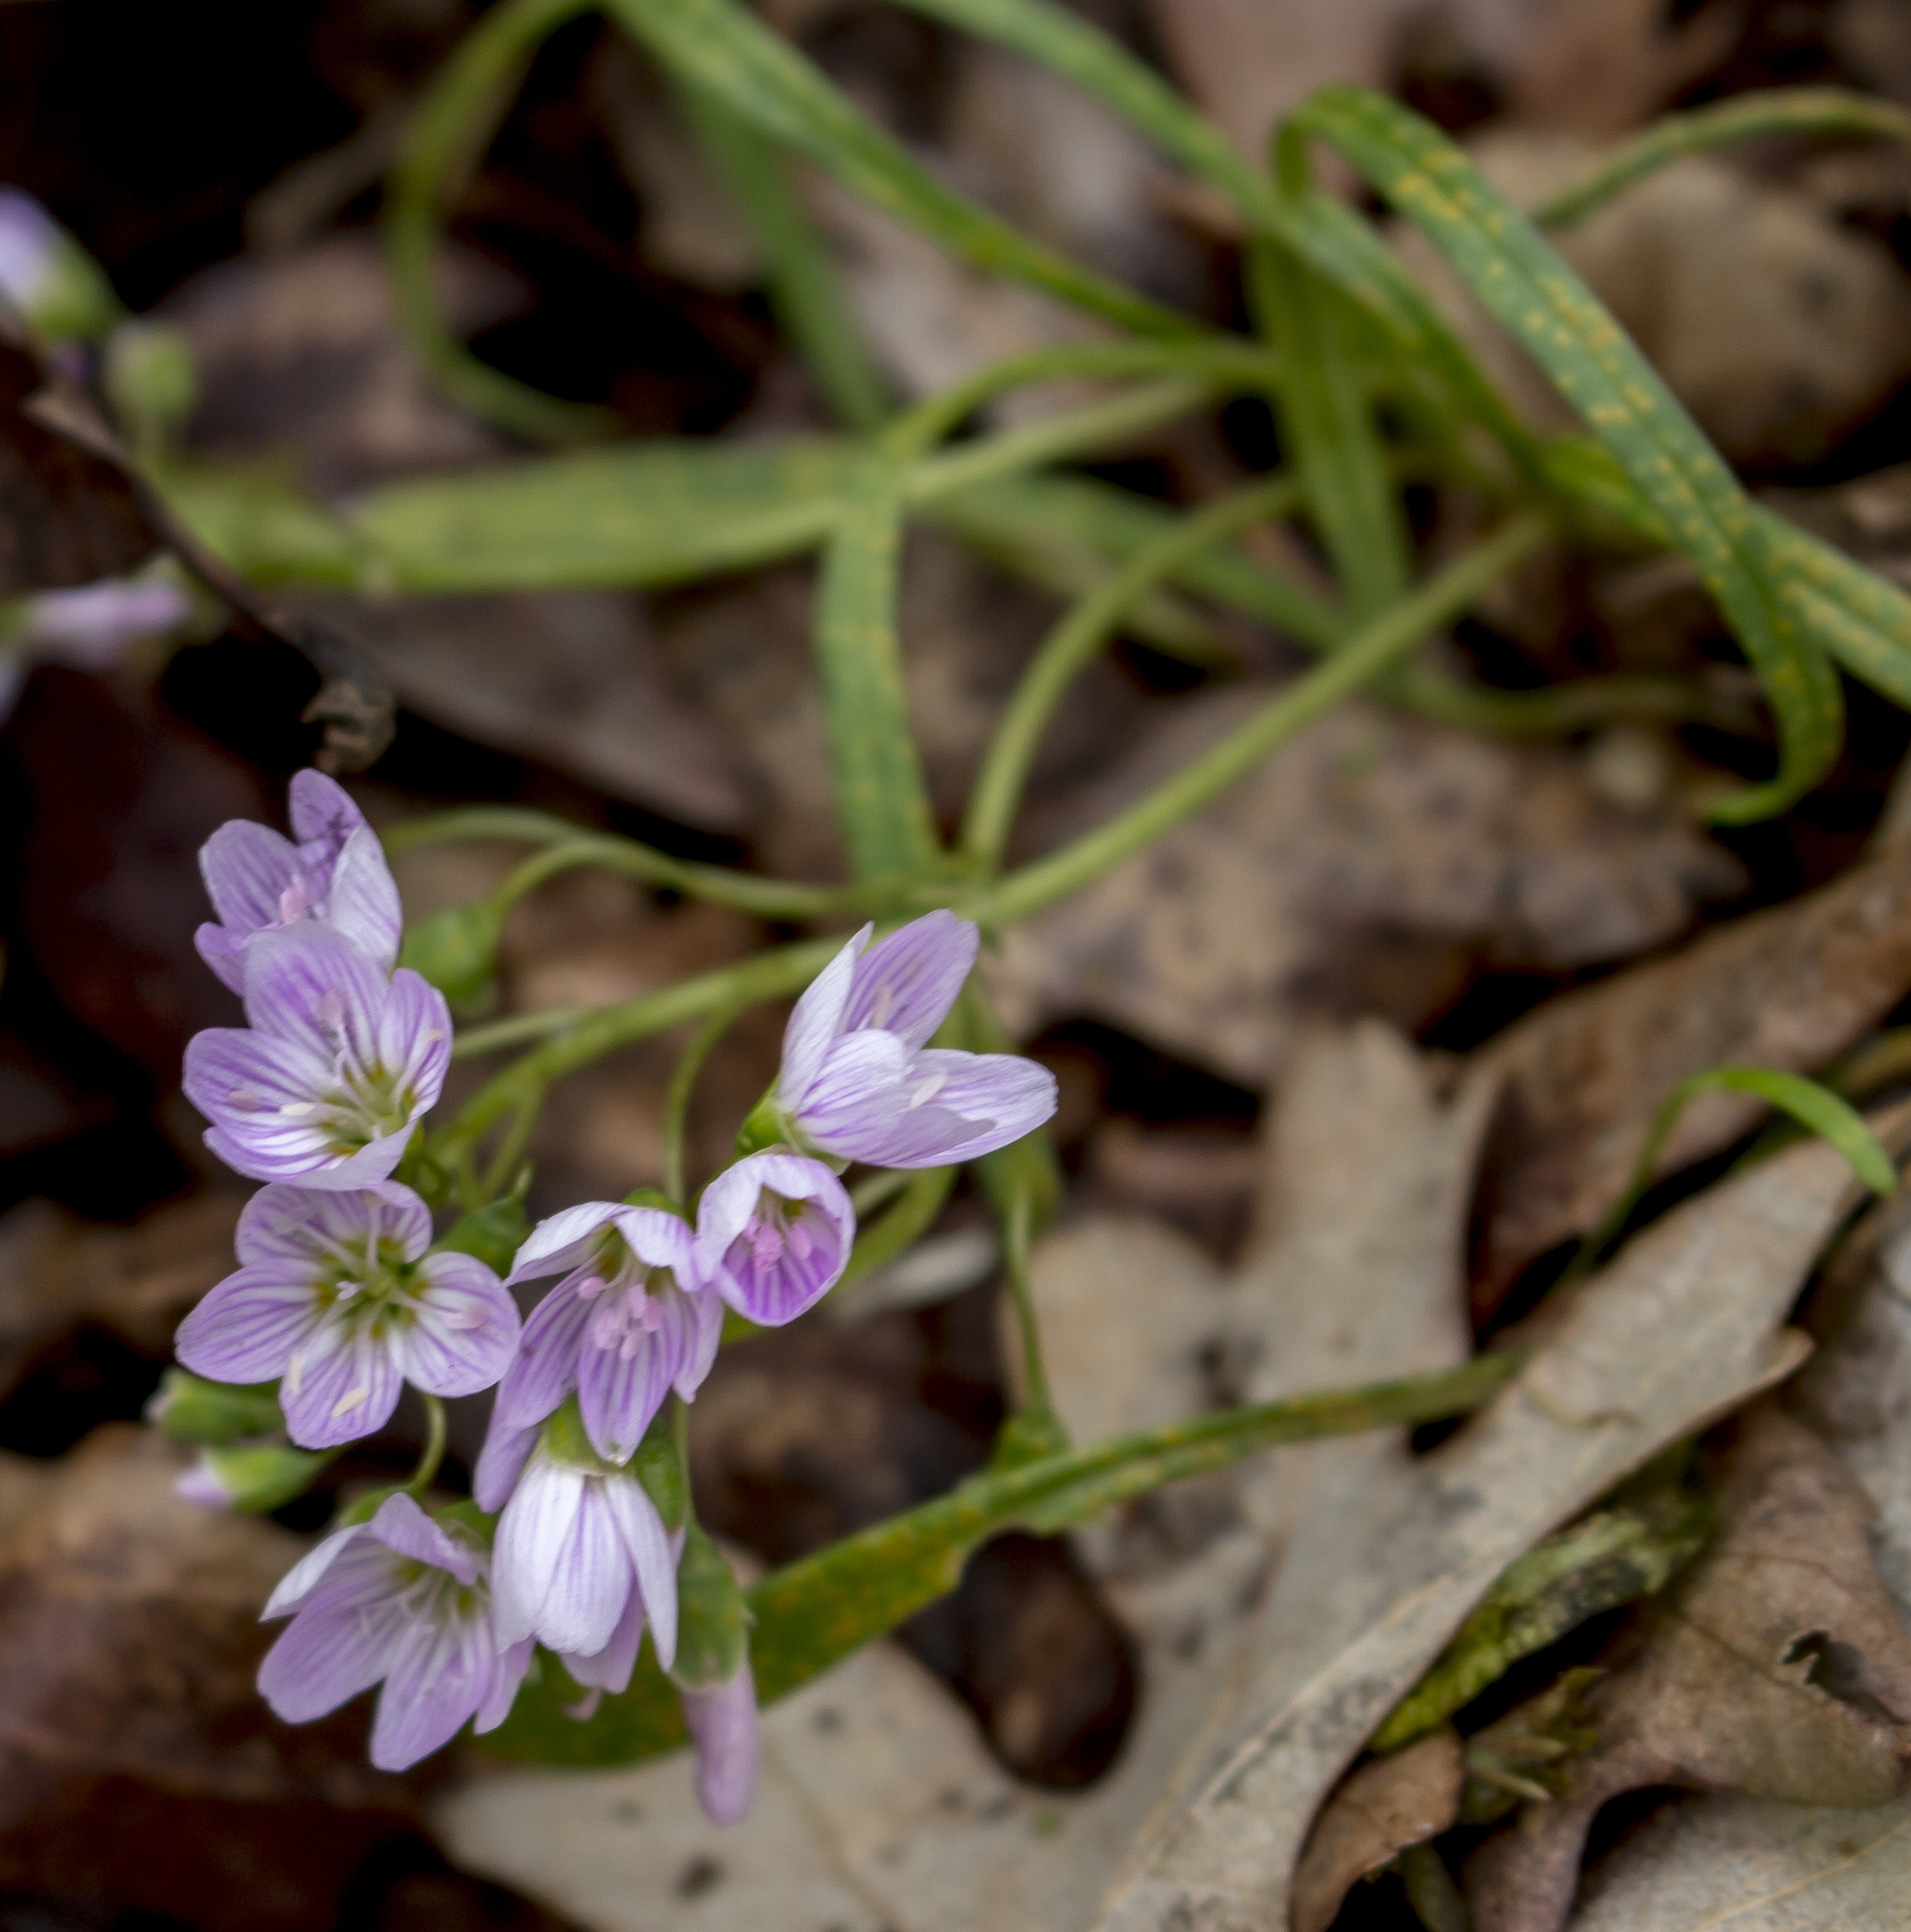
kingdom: Plantae
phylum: Tracheophyta
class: Magnoliopsida
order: Caryophyllales
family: Montiaceae
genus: Claytonia
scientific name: Claytonia virginica
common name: Virginia springbeauty
